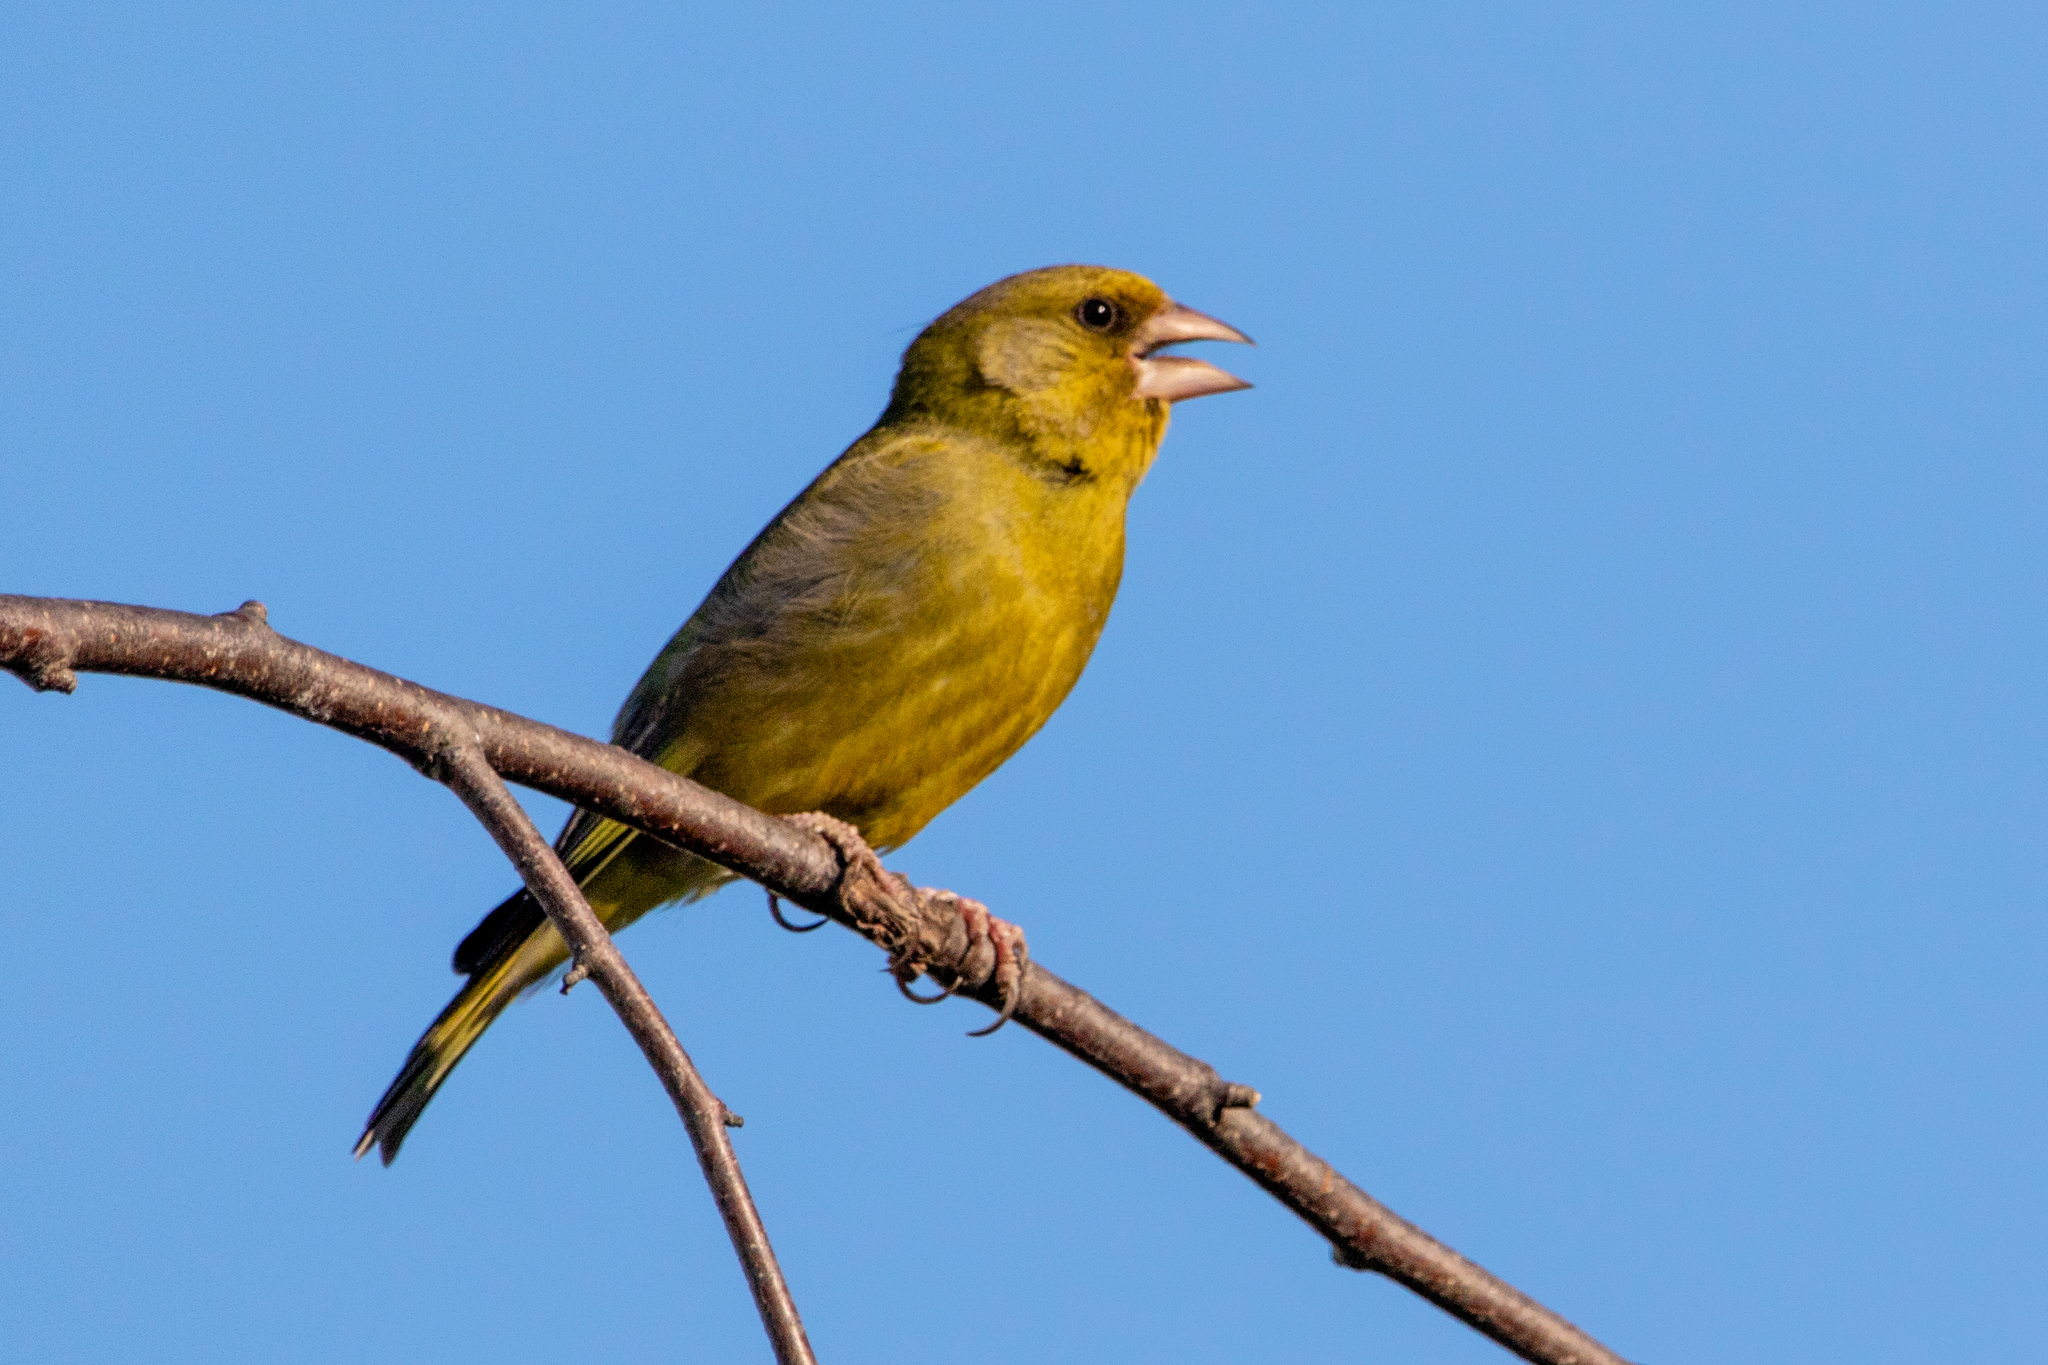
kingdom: Plantae
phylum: Tracheophyta
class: Liliopsida
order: Poales
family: Poaceae
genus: Chloris
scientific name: Chloris chloris
